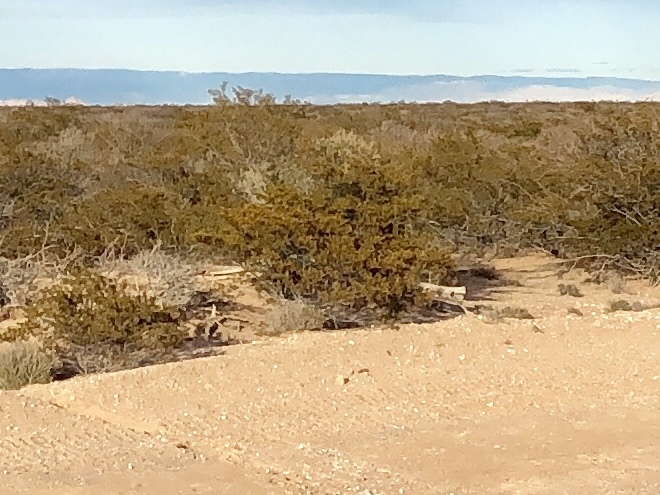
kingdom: Plantae
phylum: Tracheophyta
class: Magnoliopsida
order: Zygophyllales
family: Zygophyllaceae
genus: Larrea
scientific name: Larrea tridentata
